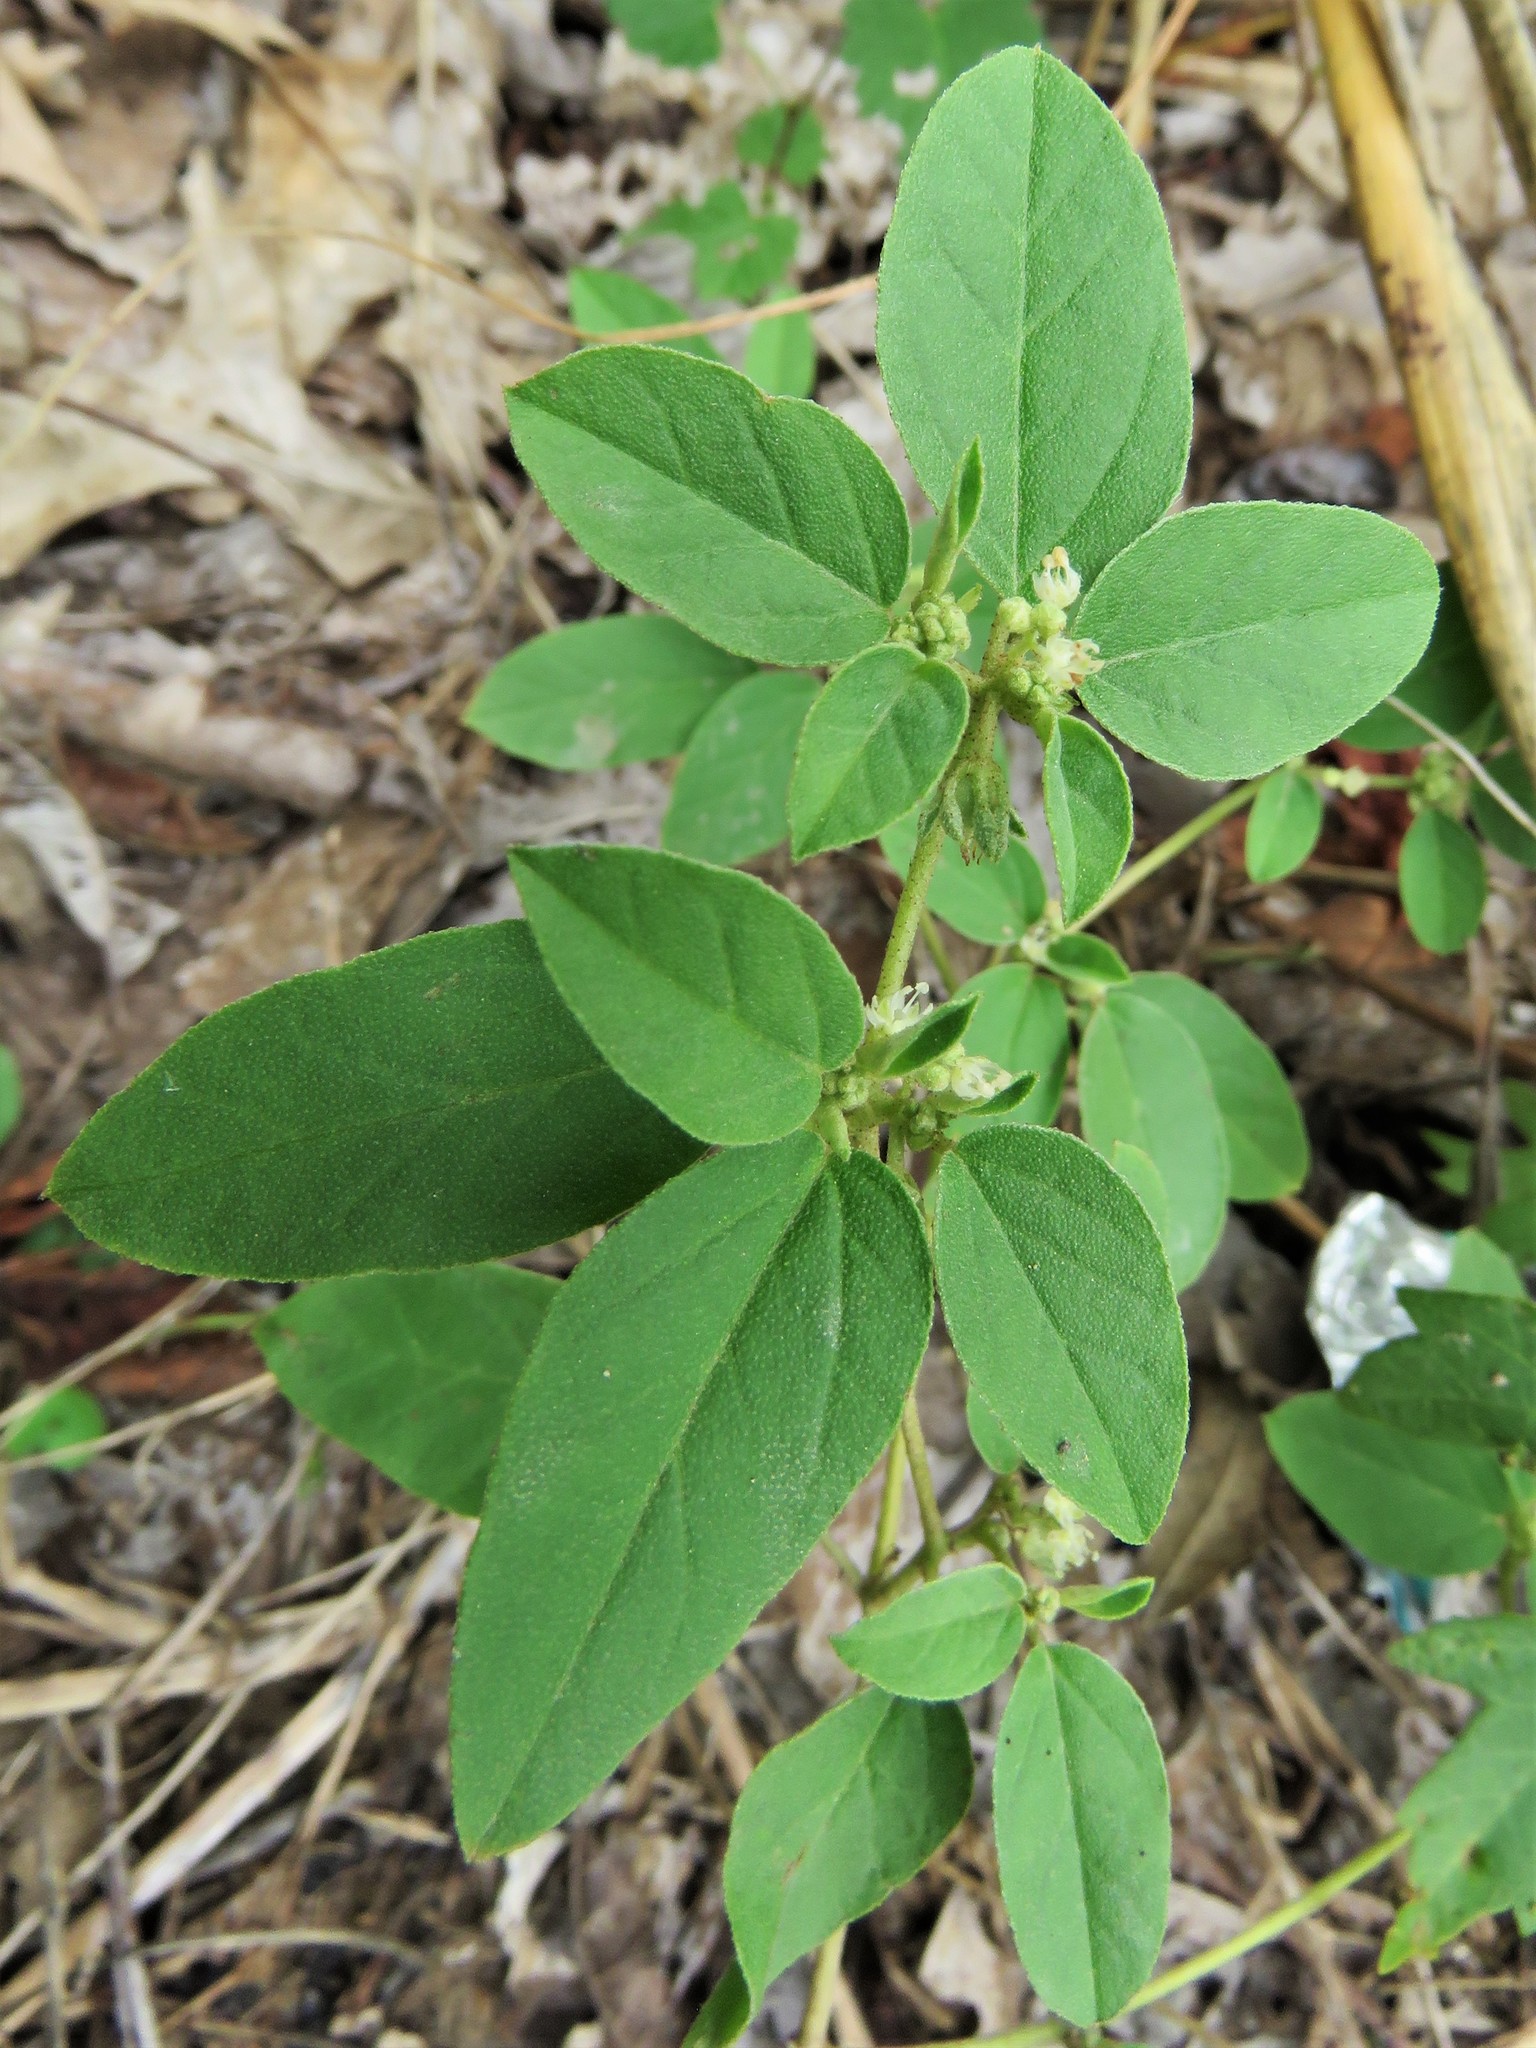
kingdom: Plantae
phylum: Tracheophyta
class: Magnoliopsida
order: Malpighiales
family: Euphorbiaceae
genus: Croton
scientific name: Croton monanthogynus
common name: One-seed croton
